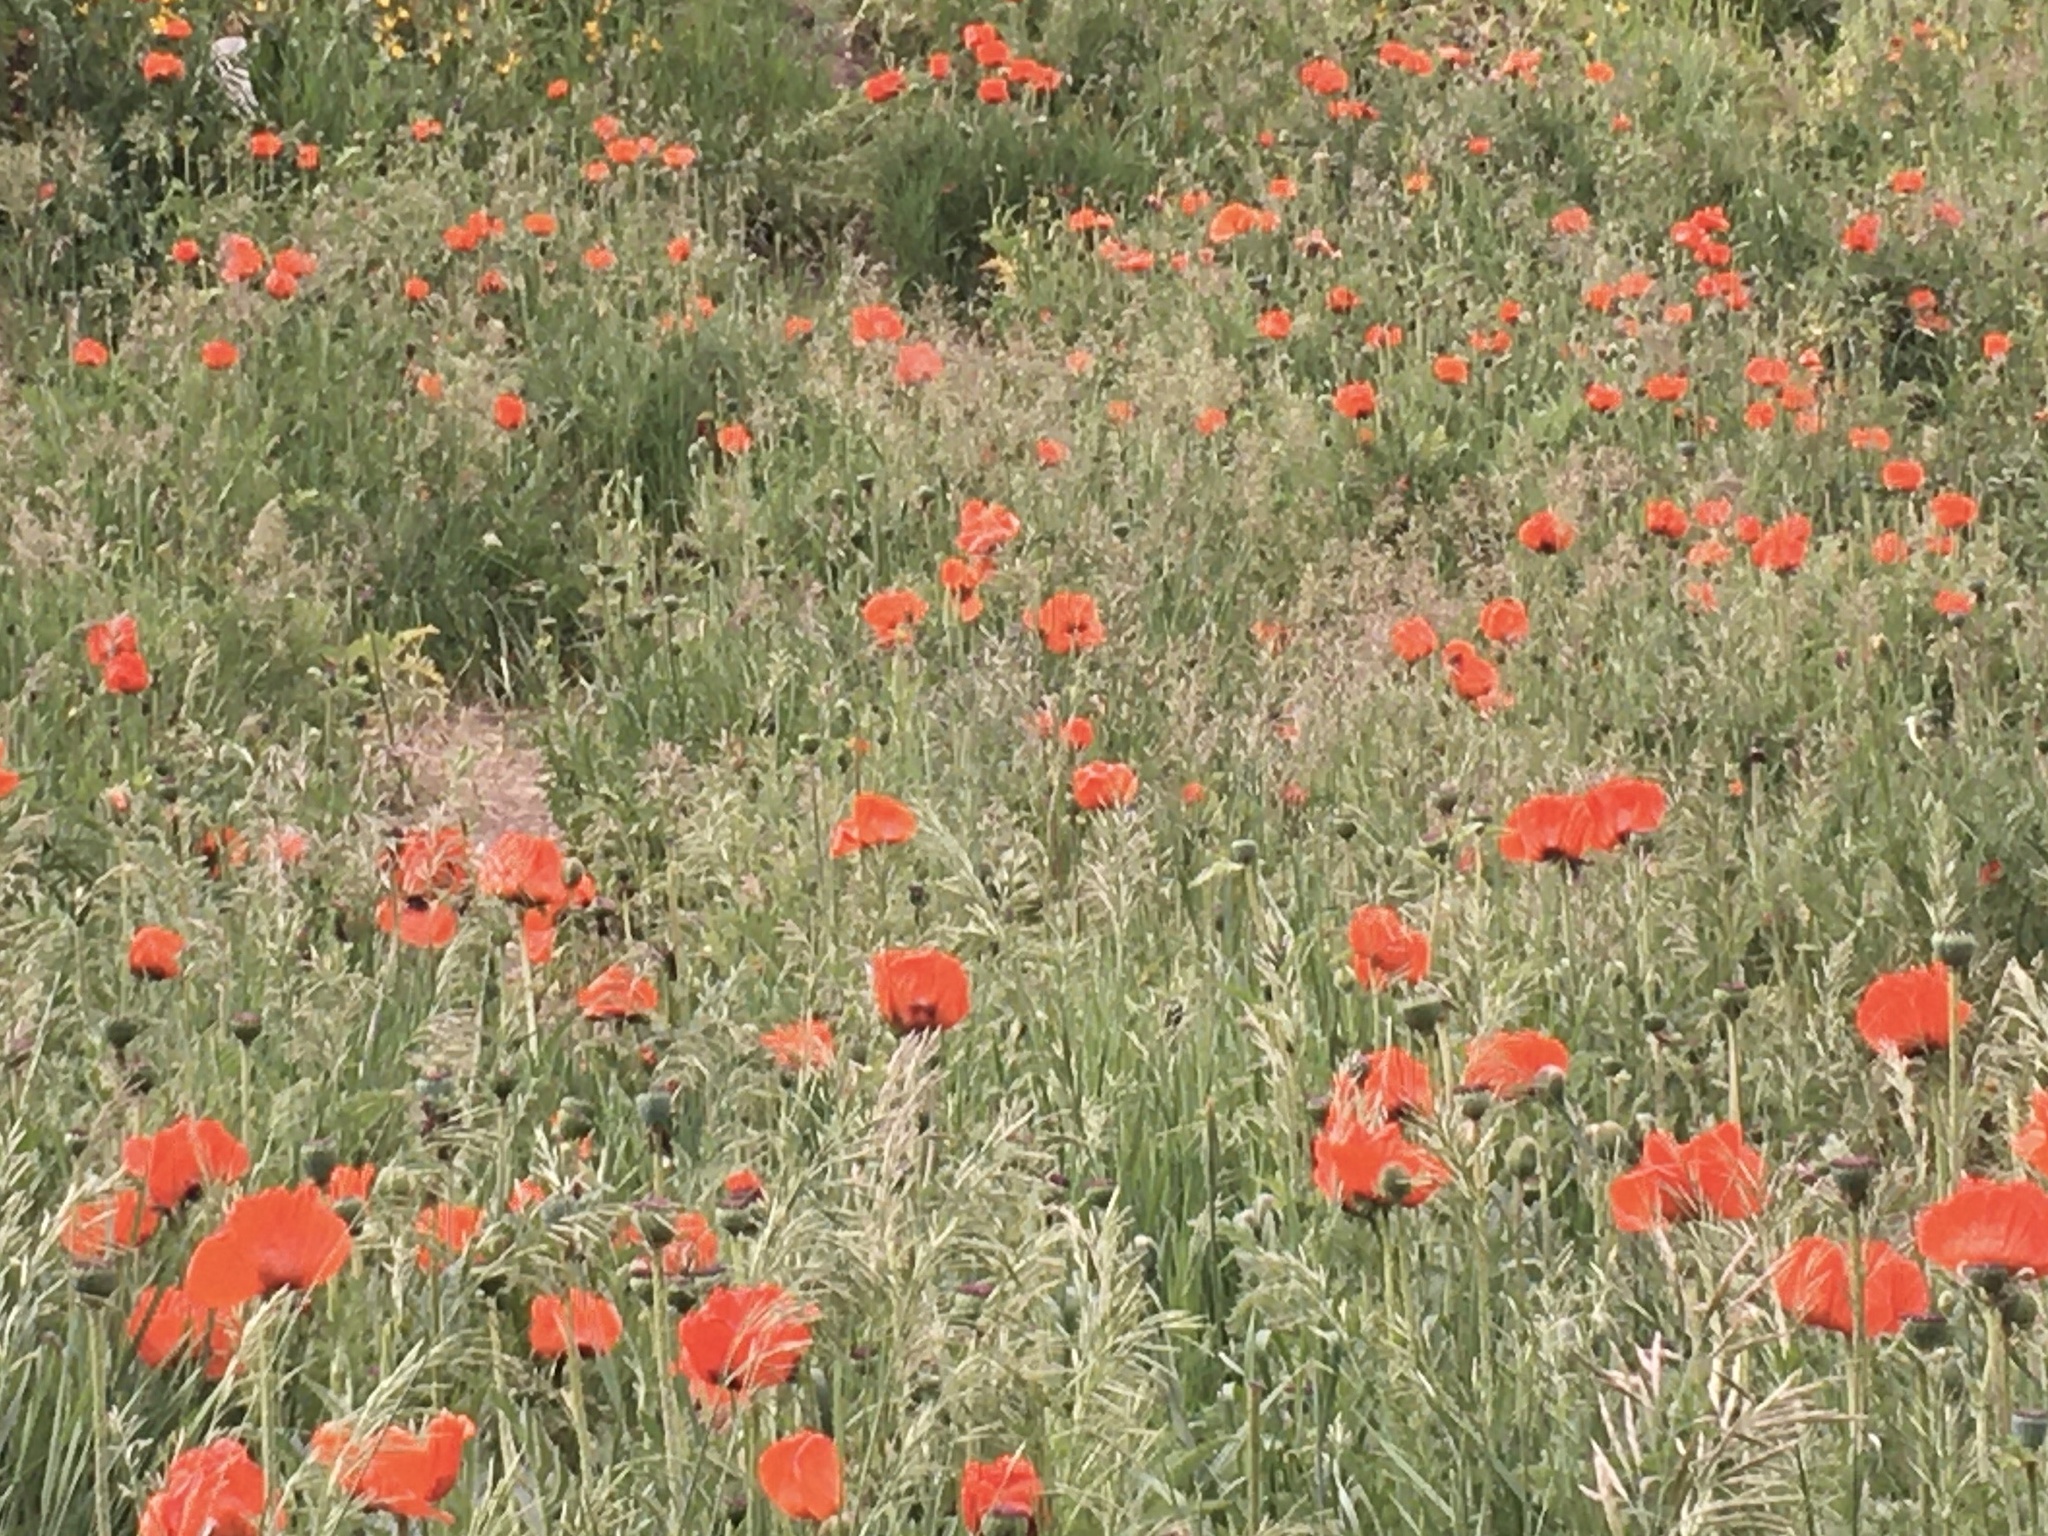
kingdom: Plantae
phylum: Tracheophyta
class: Magnoliopsida
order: Ranunculales
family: Papaveraceae
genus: Papaver
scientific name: Papaver orientale
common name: Oriental poppy
